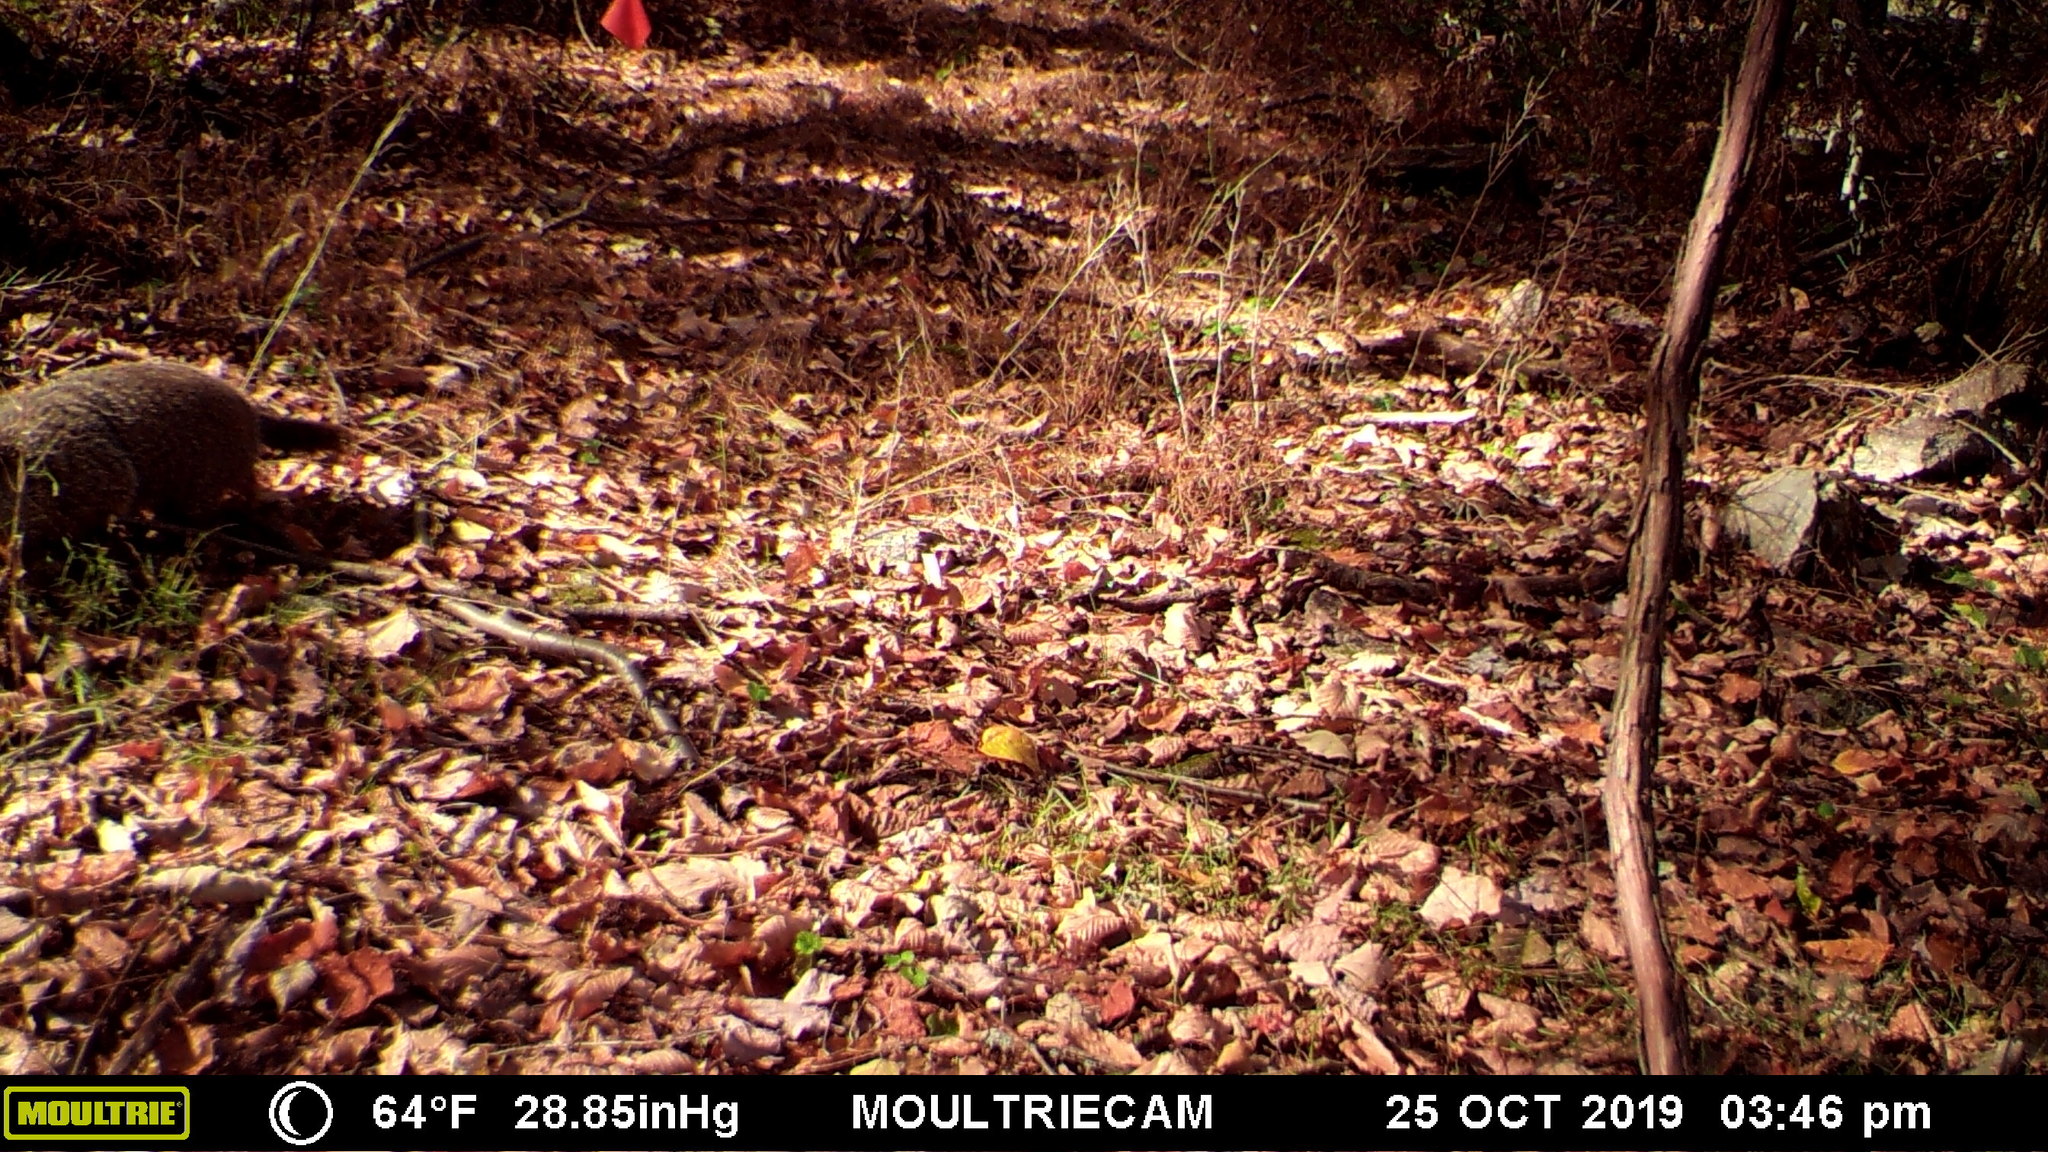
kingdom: Animalia
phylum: Chordata
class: Mammalia
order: Rodentia
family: Sciuridae
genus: Marmota
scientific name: Marmota monax
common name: Groundhog
